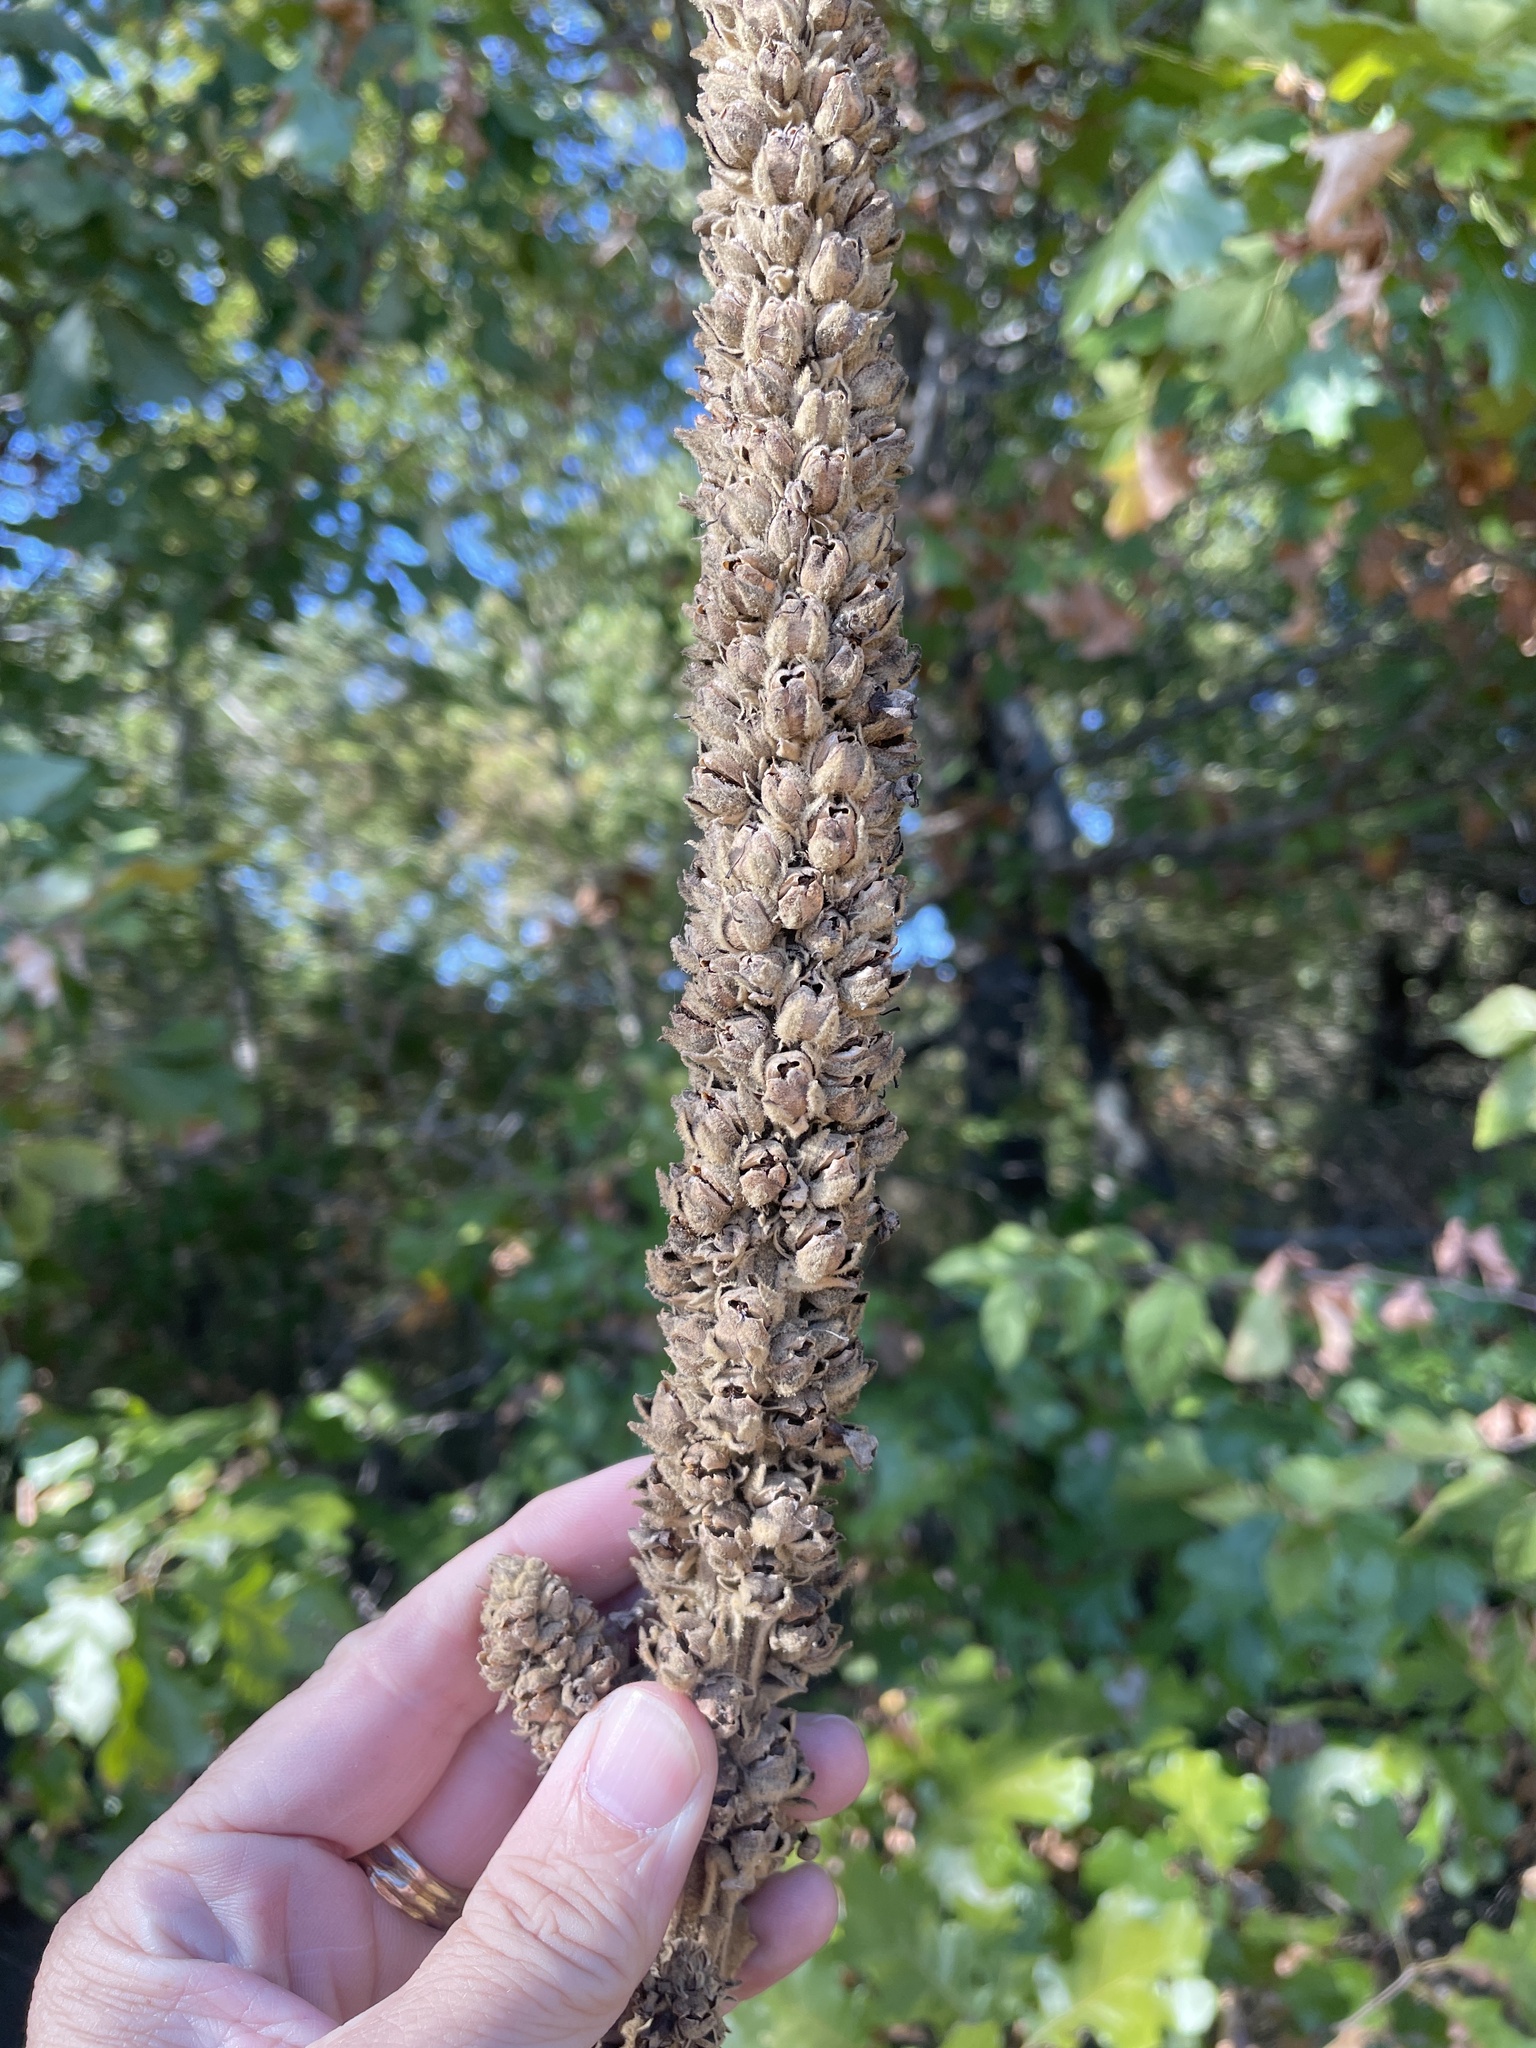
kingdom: Plantae
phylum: Tracheophyta
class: Magnoliopsida
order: Lamiales
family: Scrophulariaceae
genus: Verbascum
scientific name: Verbascum thapsus
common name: Common mullein
